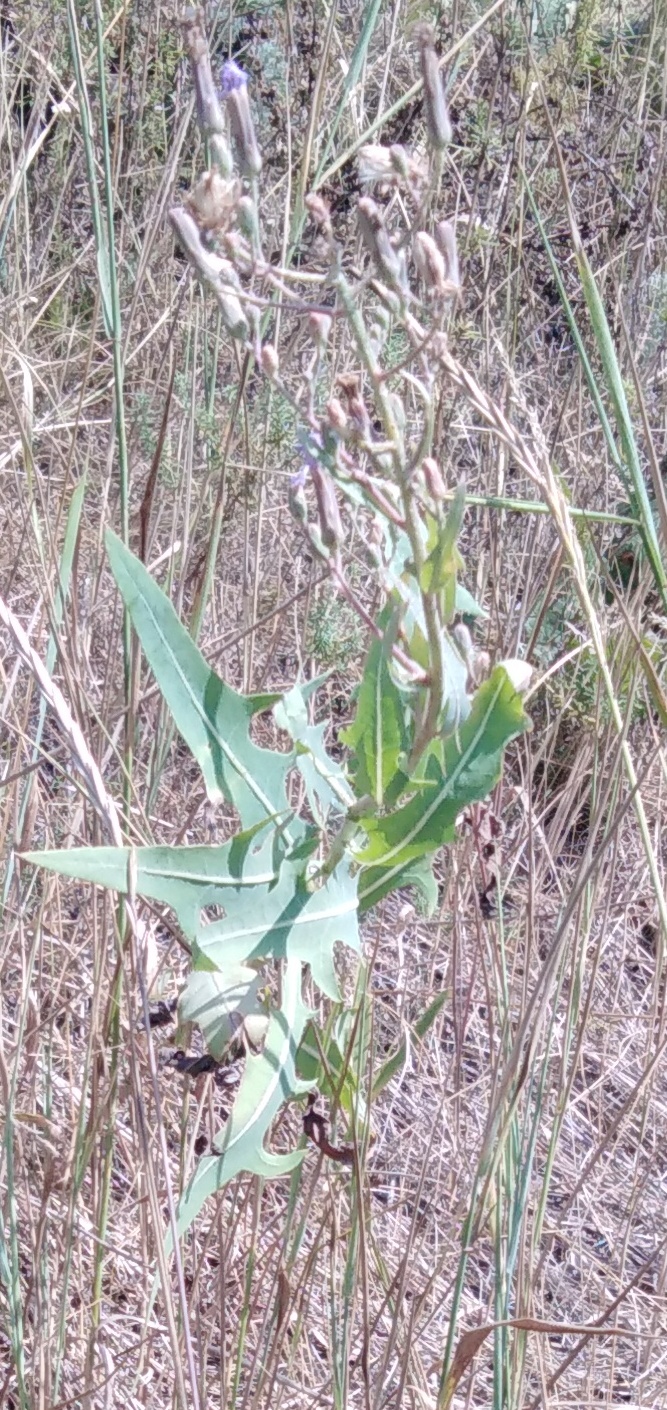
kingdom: Plantae
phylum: Tracheophyta
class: Magnoliopsida
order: Asterales
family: Asteraceae
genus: Lactuca
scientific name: Lactuca tatarica
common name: Blue lettuce
